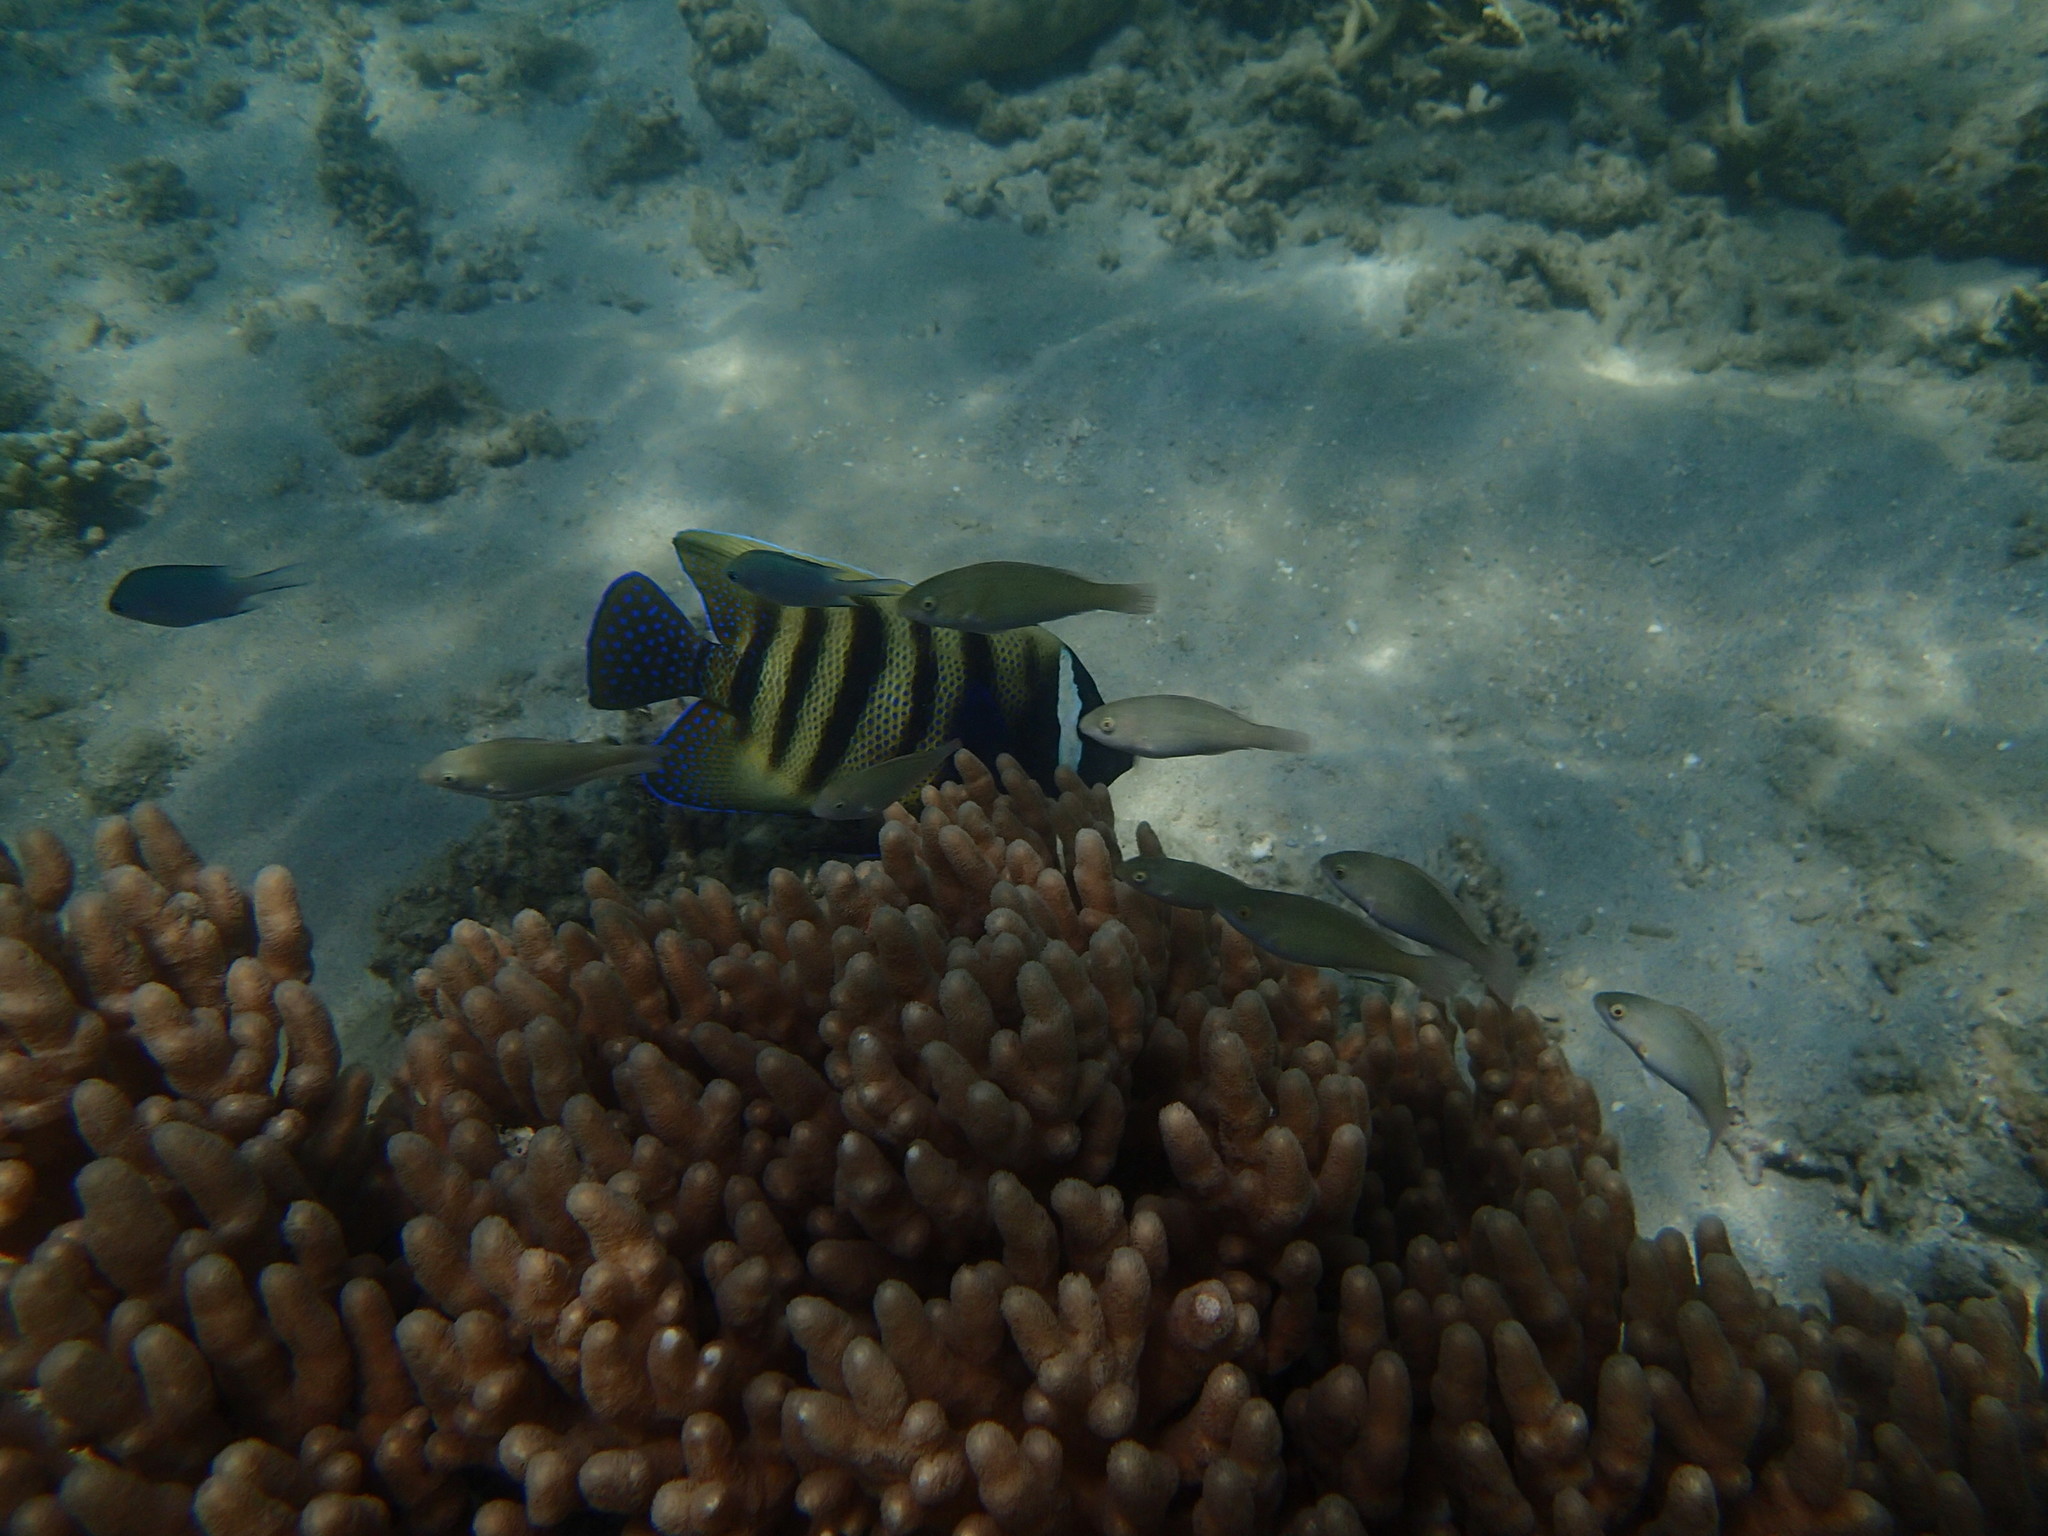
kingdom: Animalia
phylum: Chordata
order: Perciformes
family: Scaridae
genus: Scarus
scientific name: Scarus psittacus
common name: Palenose parrotfish
